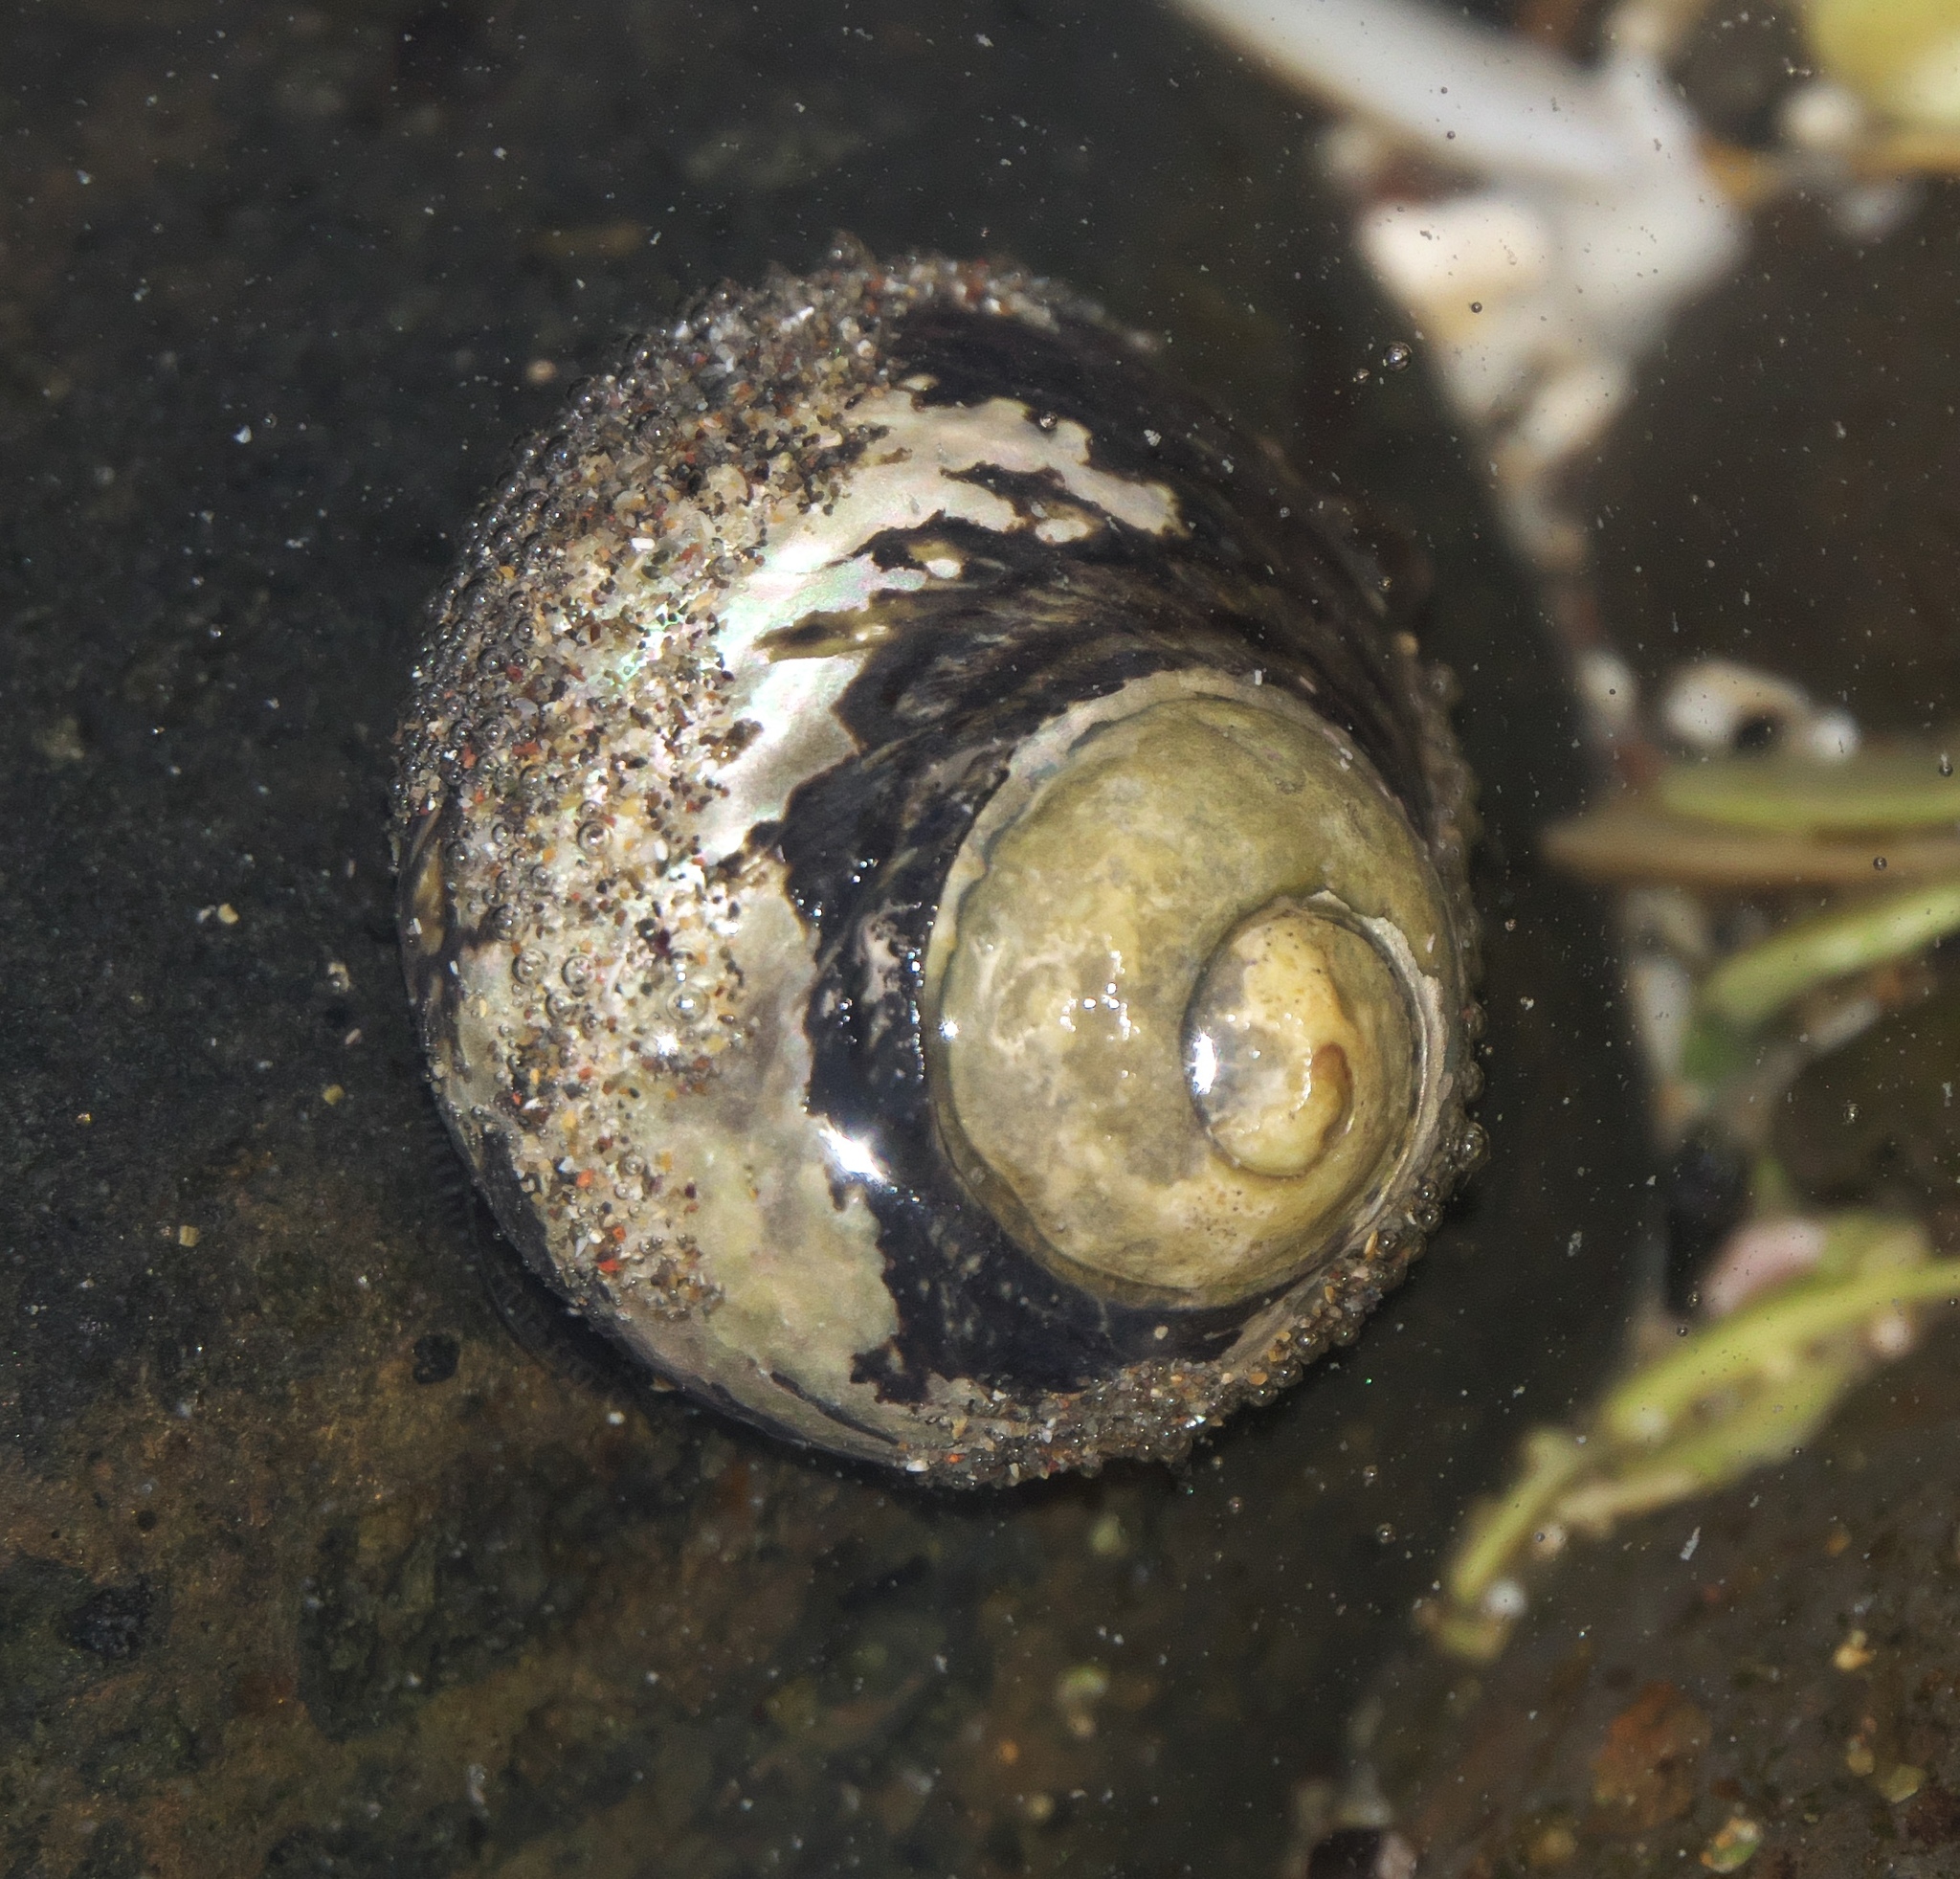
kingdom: Animalia
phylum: Mollusca
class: Gastropoda
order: Trochida
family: Trochidae
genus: Diloma
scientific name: Diloma aethiops
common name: Scorched monodont
